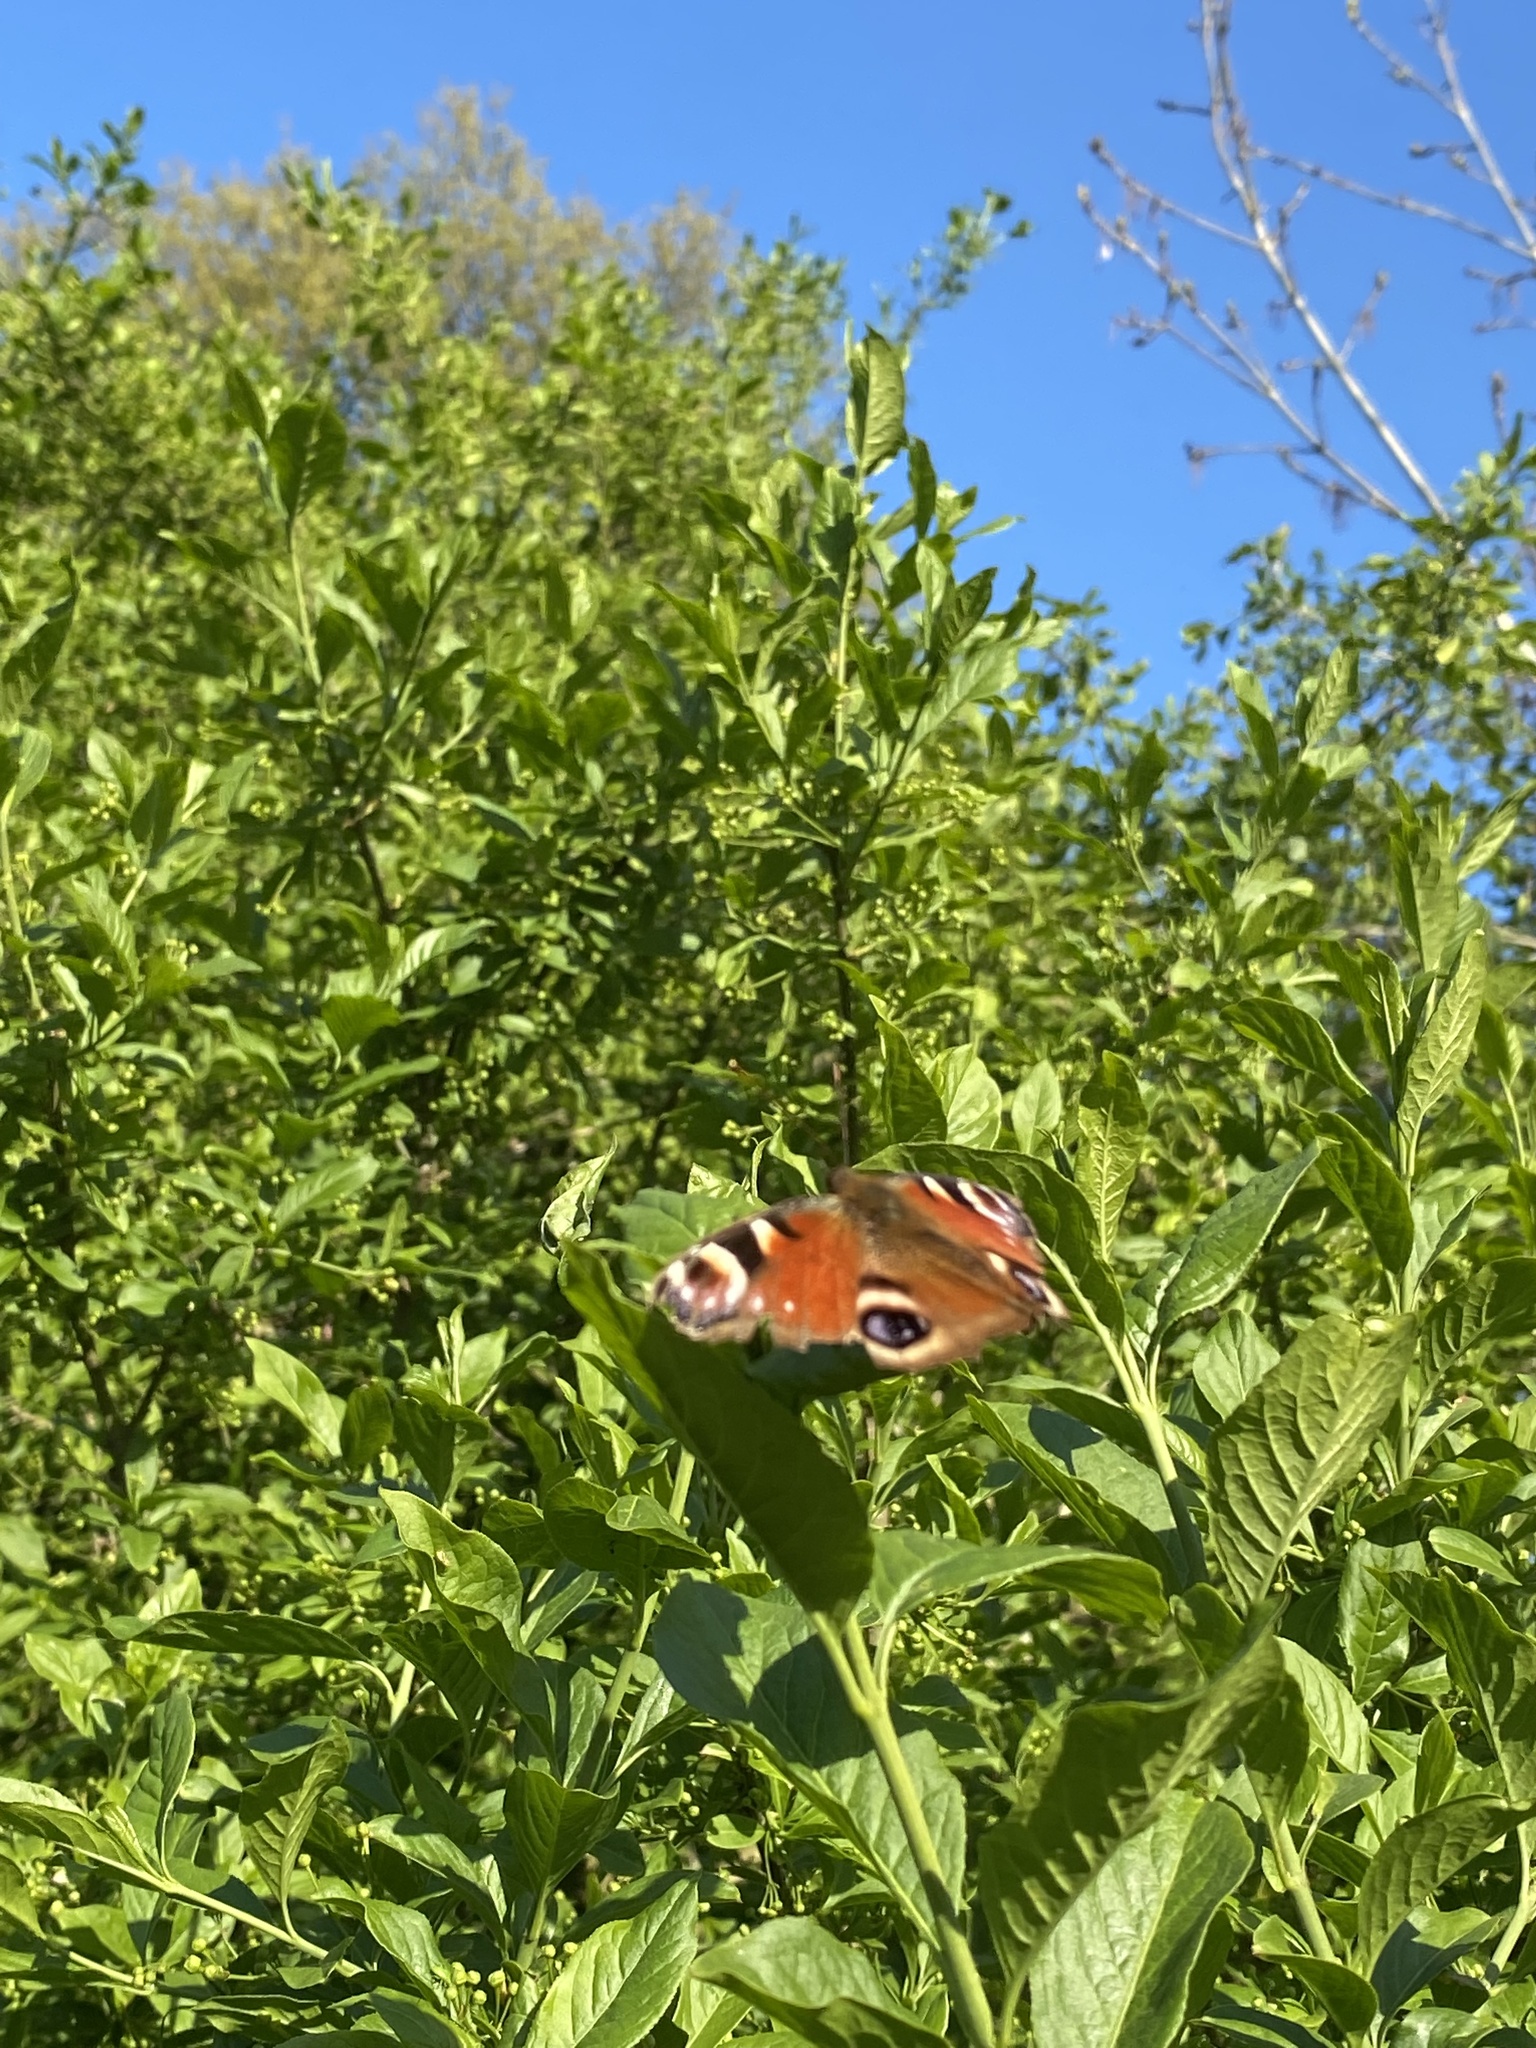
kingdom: Animalia
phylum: Arthropoda
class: Insecta
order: Lepidoptera
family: Nymphalidae
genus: Aglais
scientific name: Aglais io
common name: Peacock
